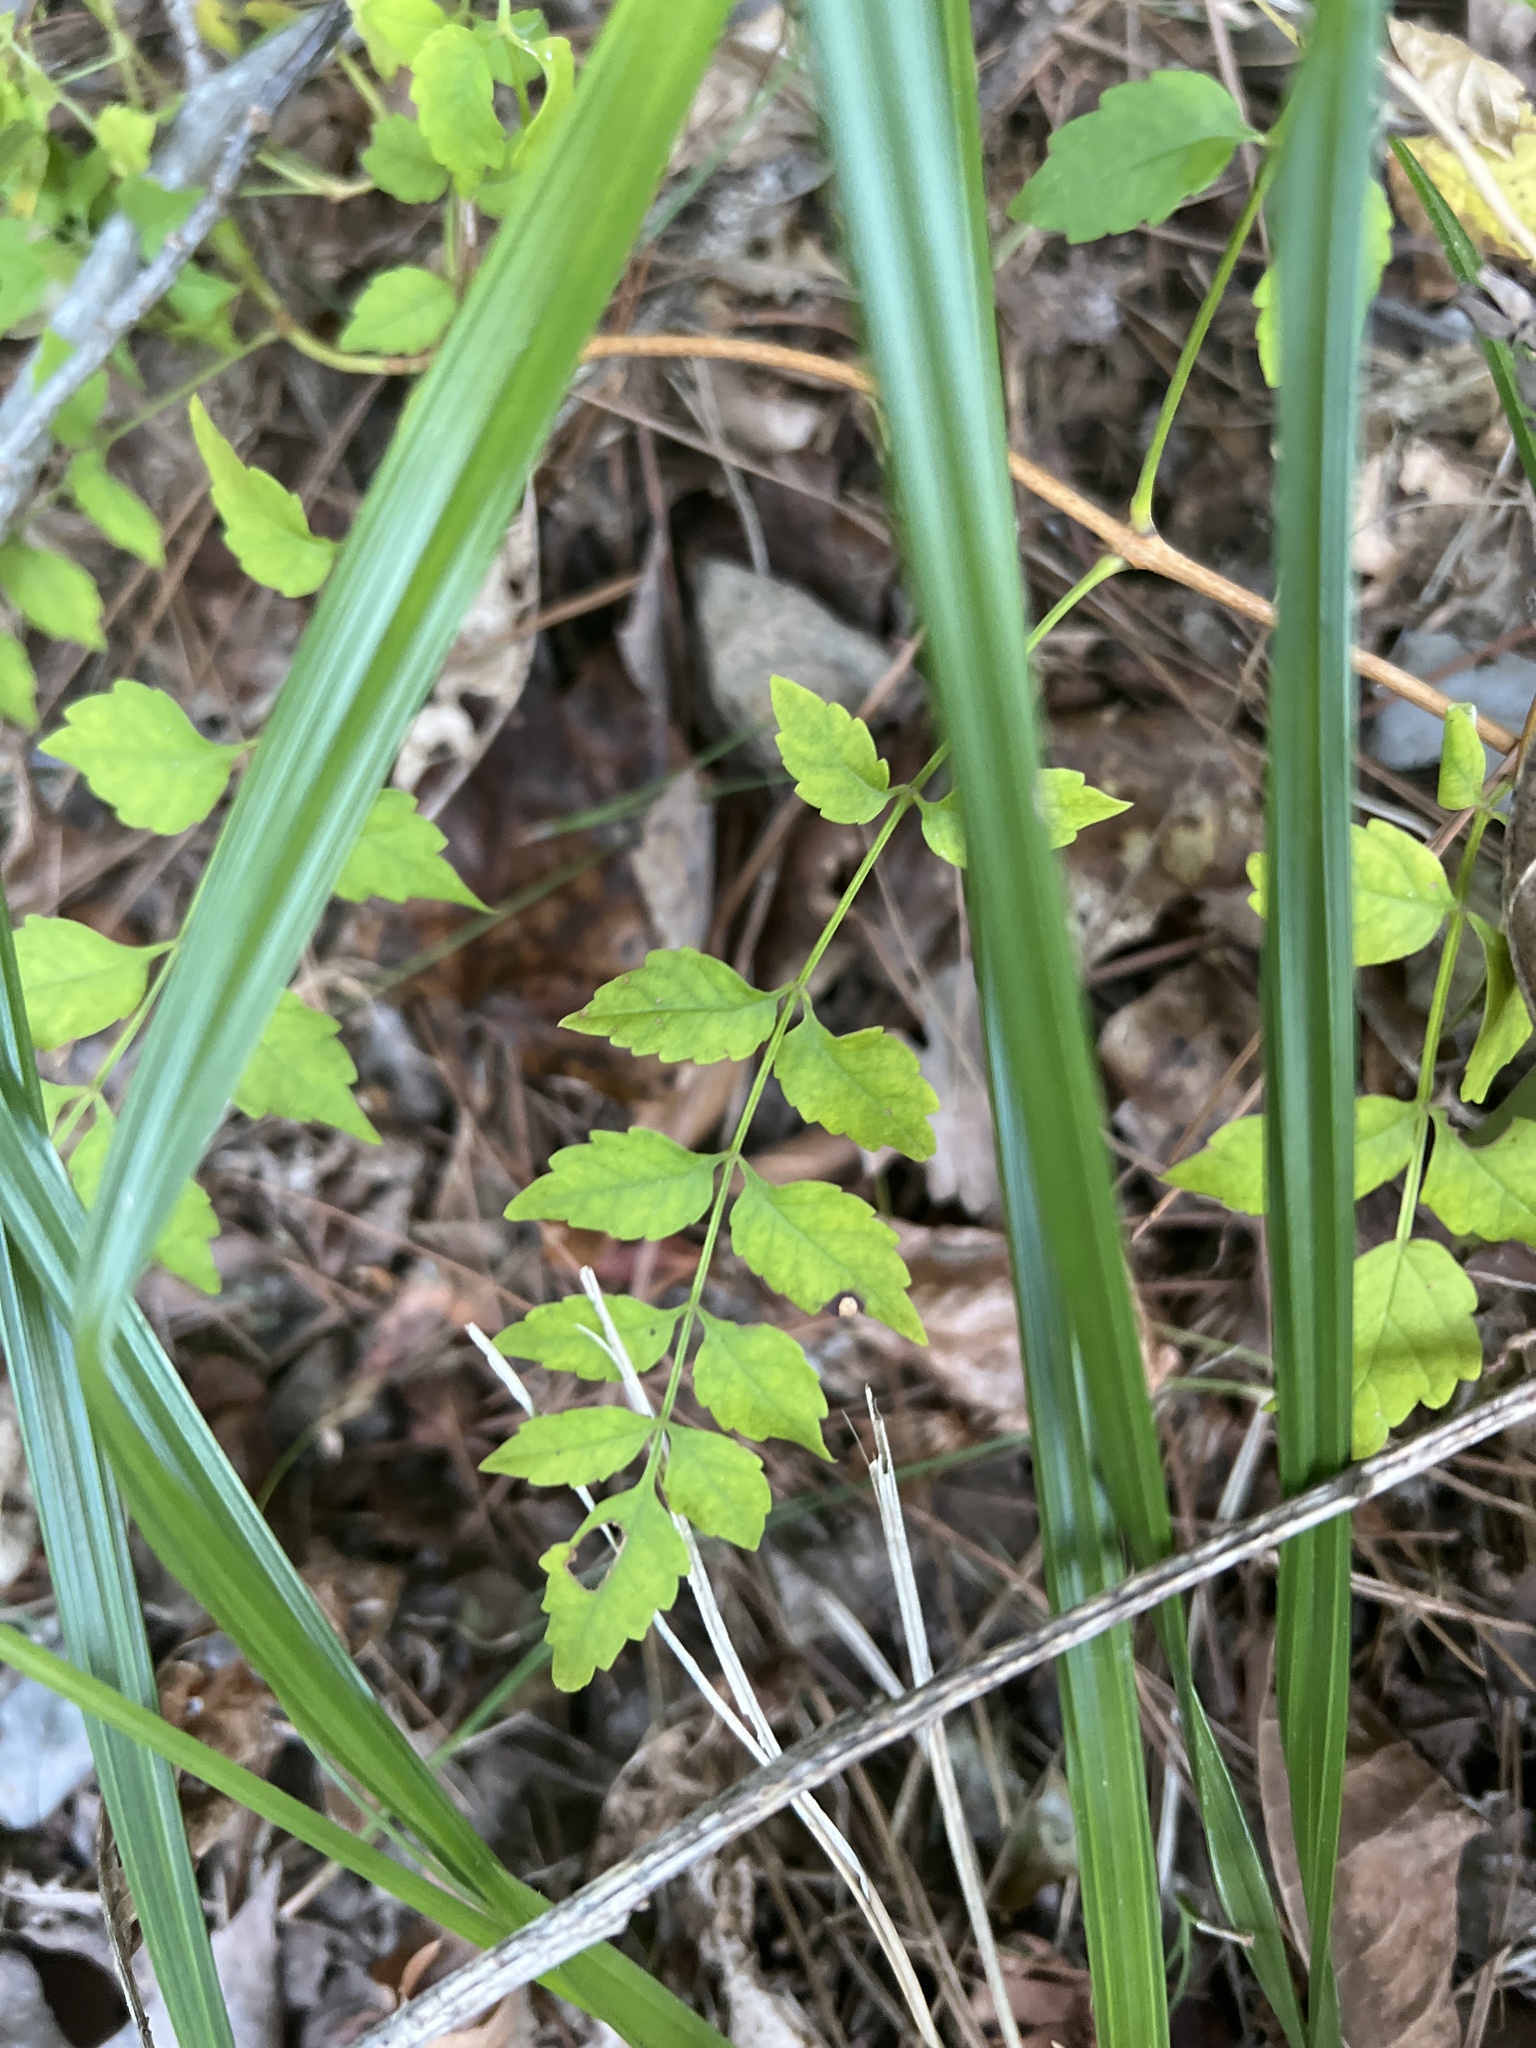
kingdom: Plantae
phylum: Tracheophyta
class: Magnoliopsida
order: Lamiales
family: Bignoniaceae
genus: Campsis
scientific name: Campsis radicans
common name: Trumpet-creeper
